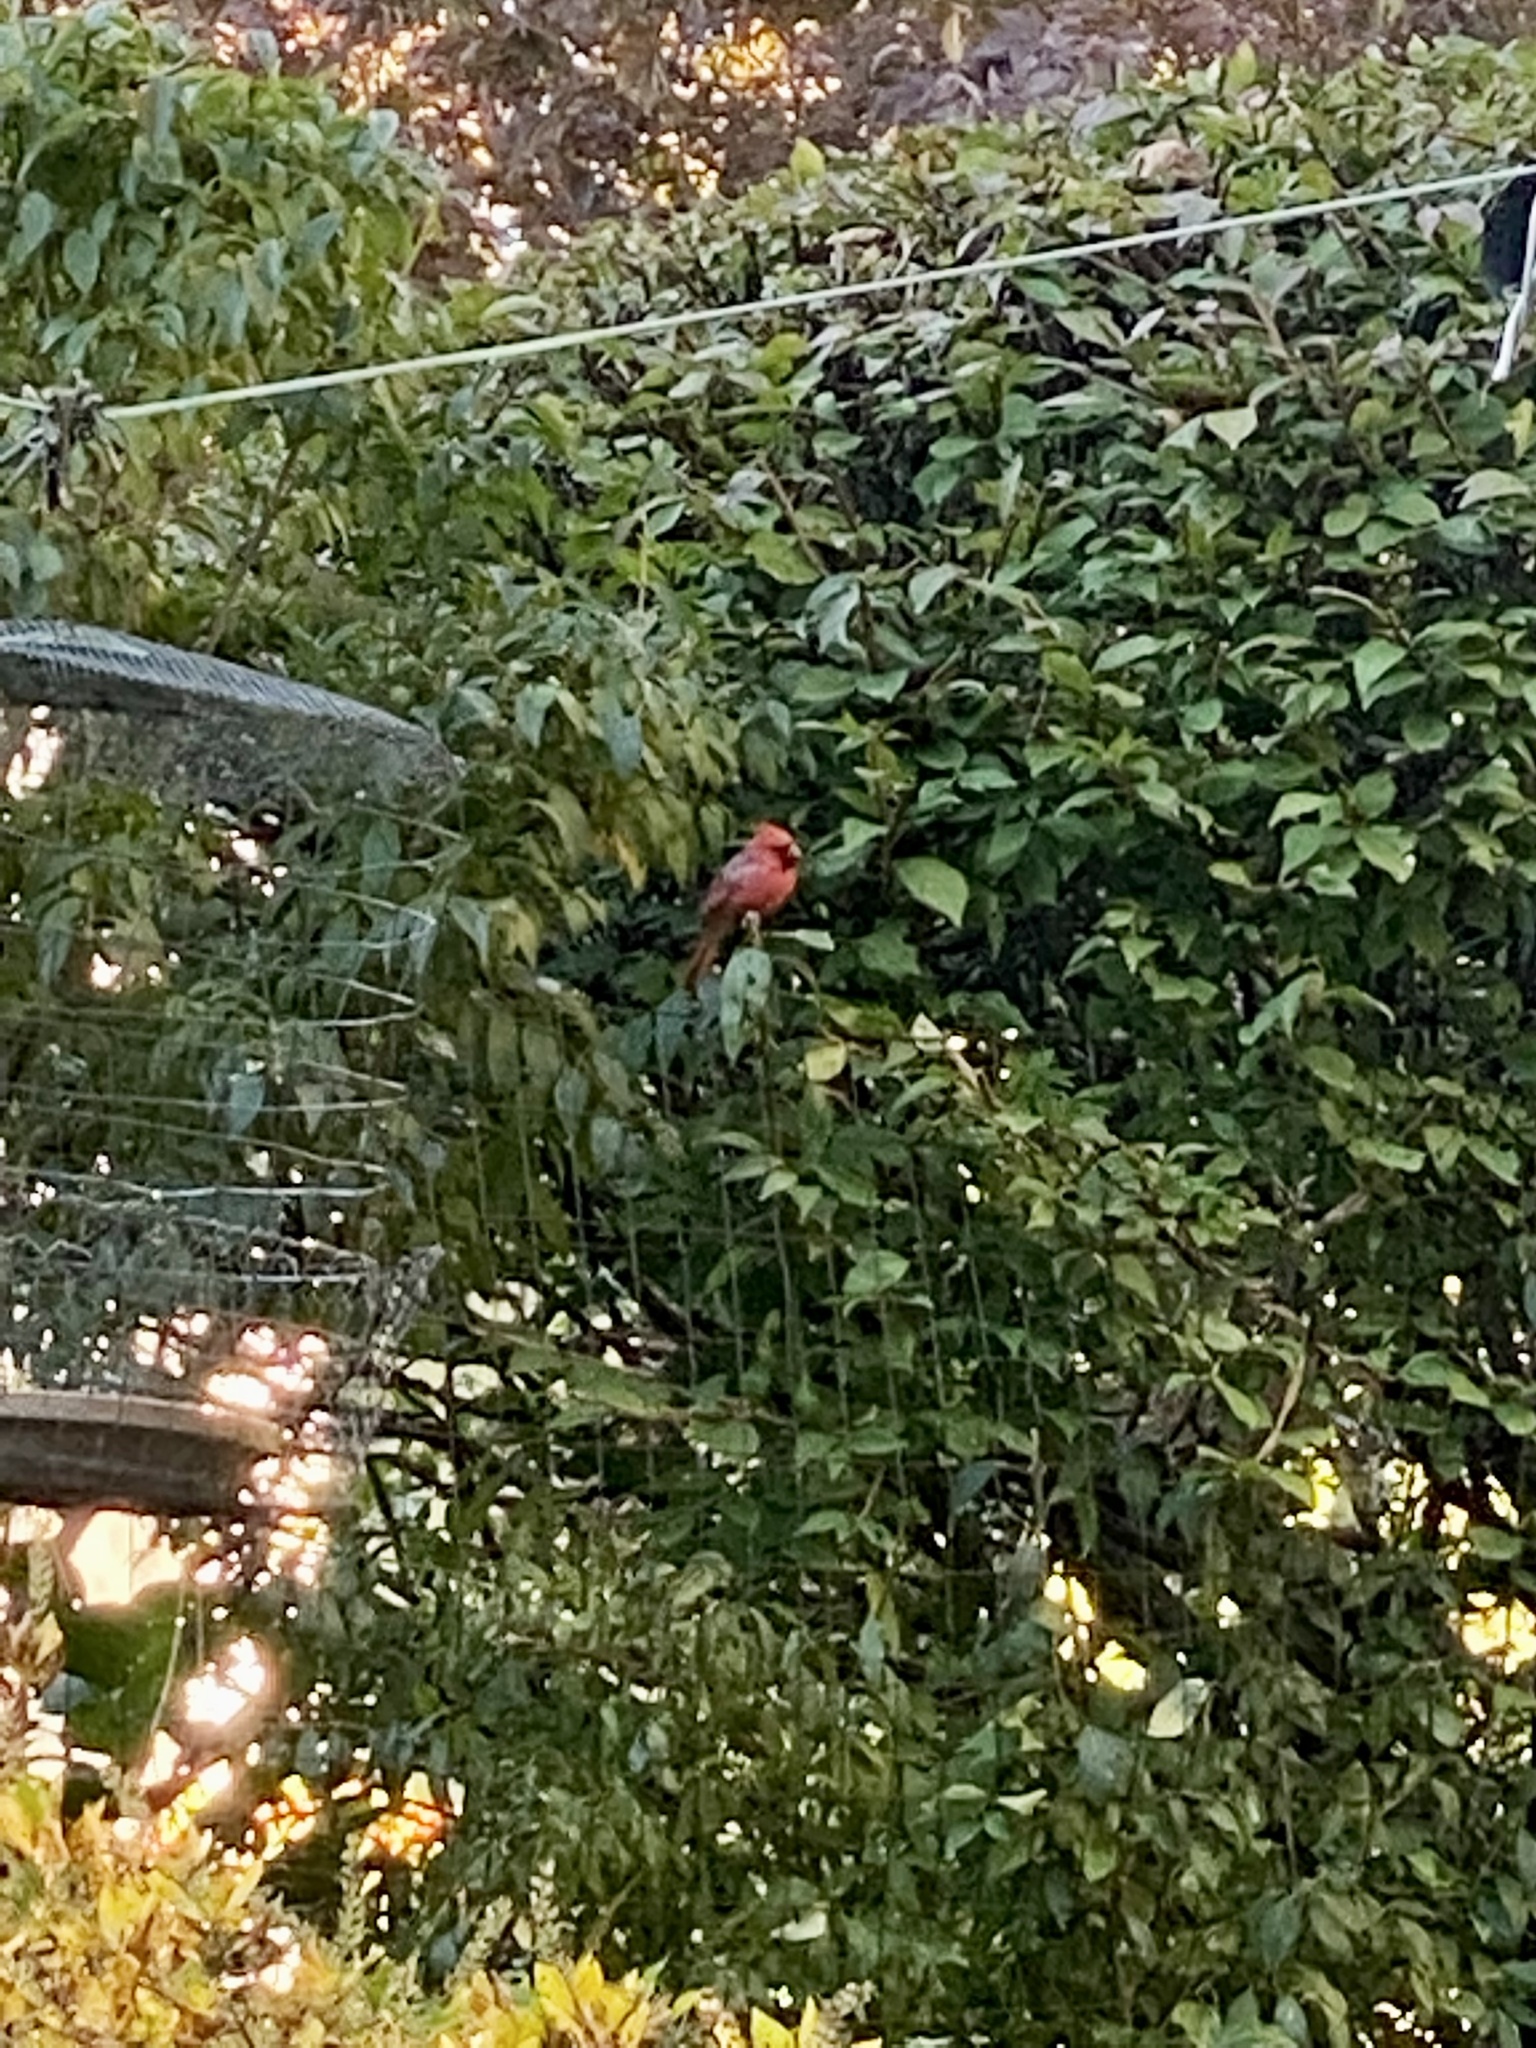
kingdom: Animalia
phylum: Chordata
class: Aves
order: Passeriformes
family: Cardinalidae
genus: Cardinalis
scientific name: Cardinalis cardinalis
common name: Northern cardinal
